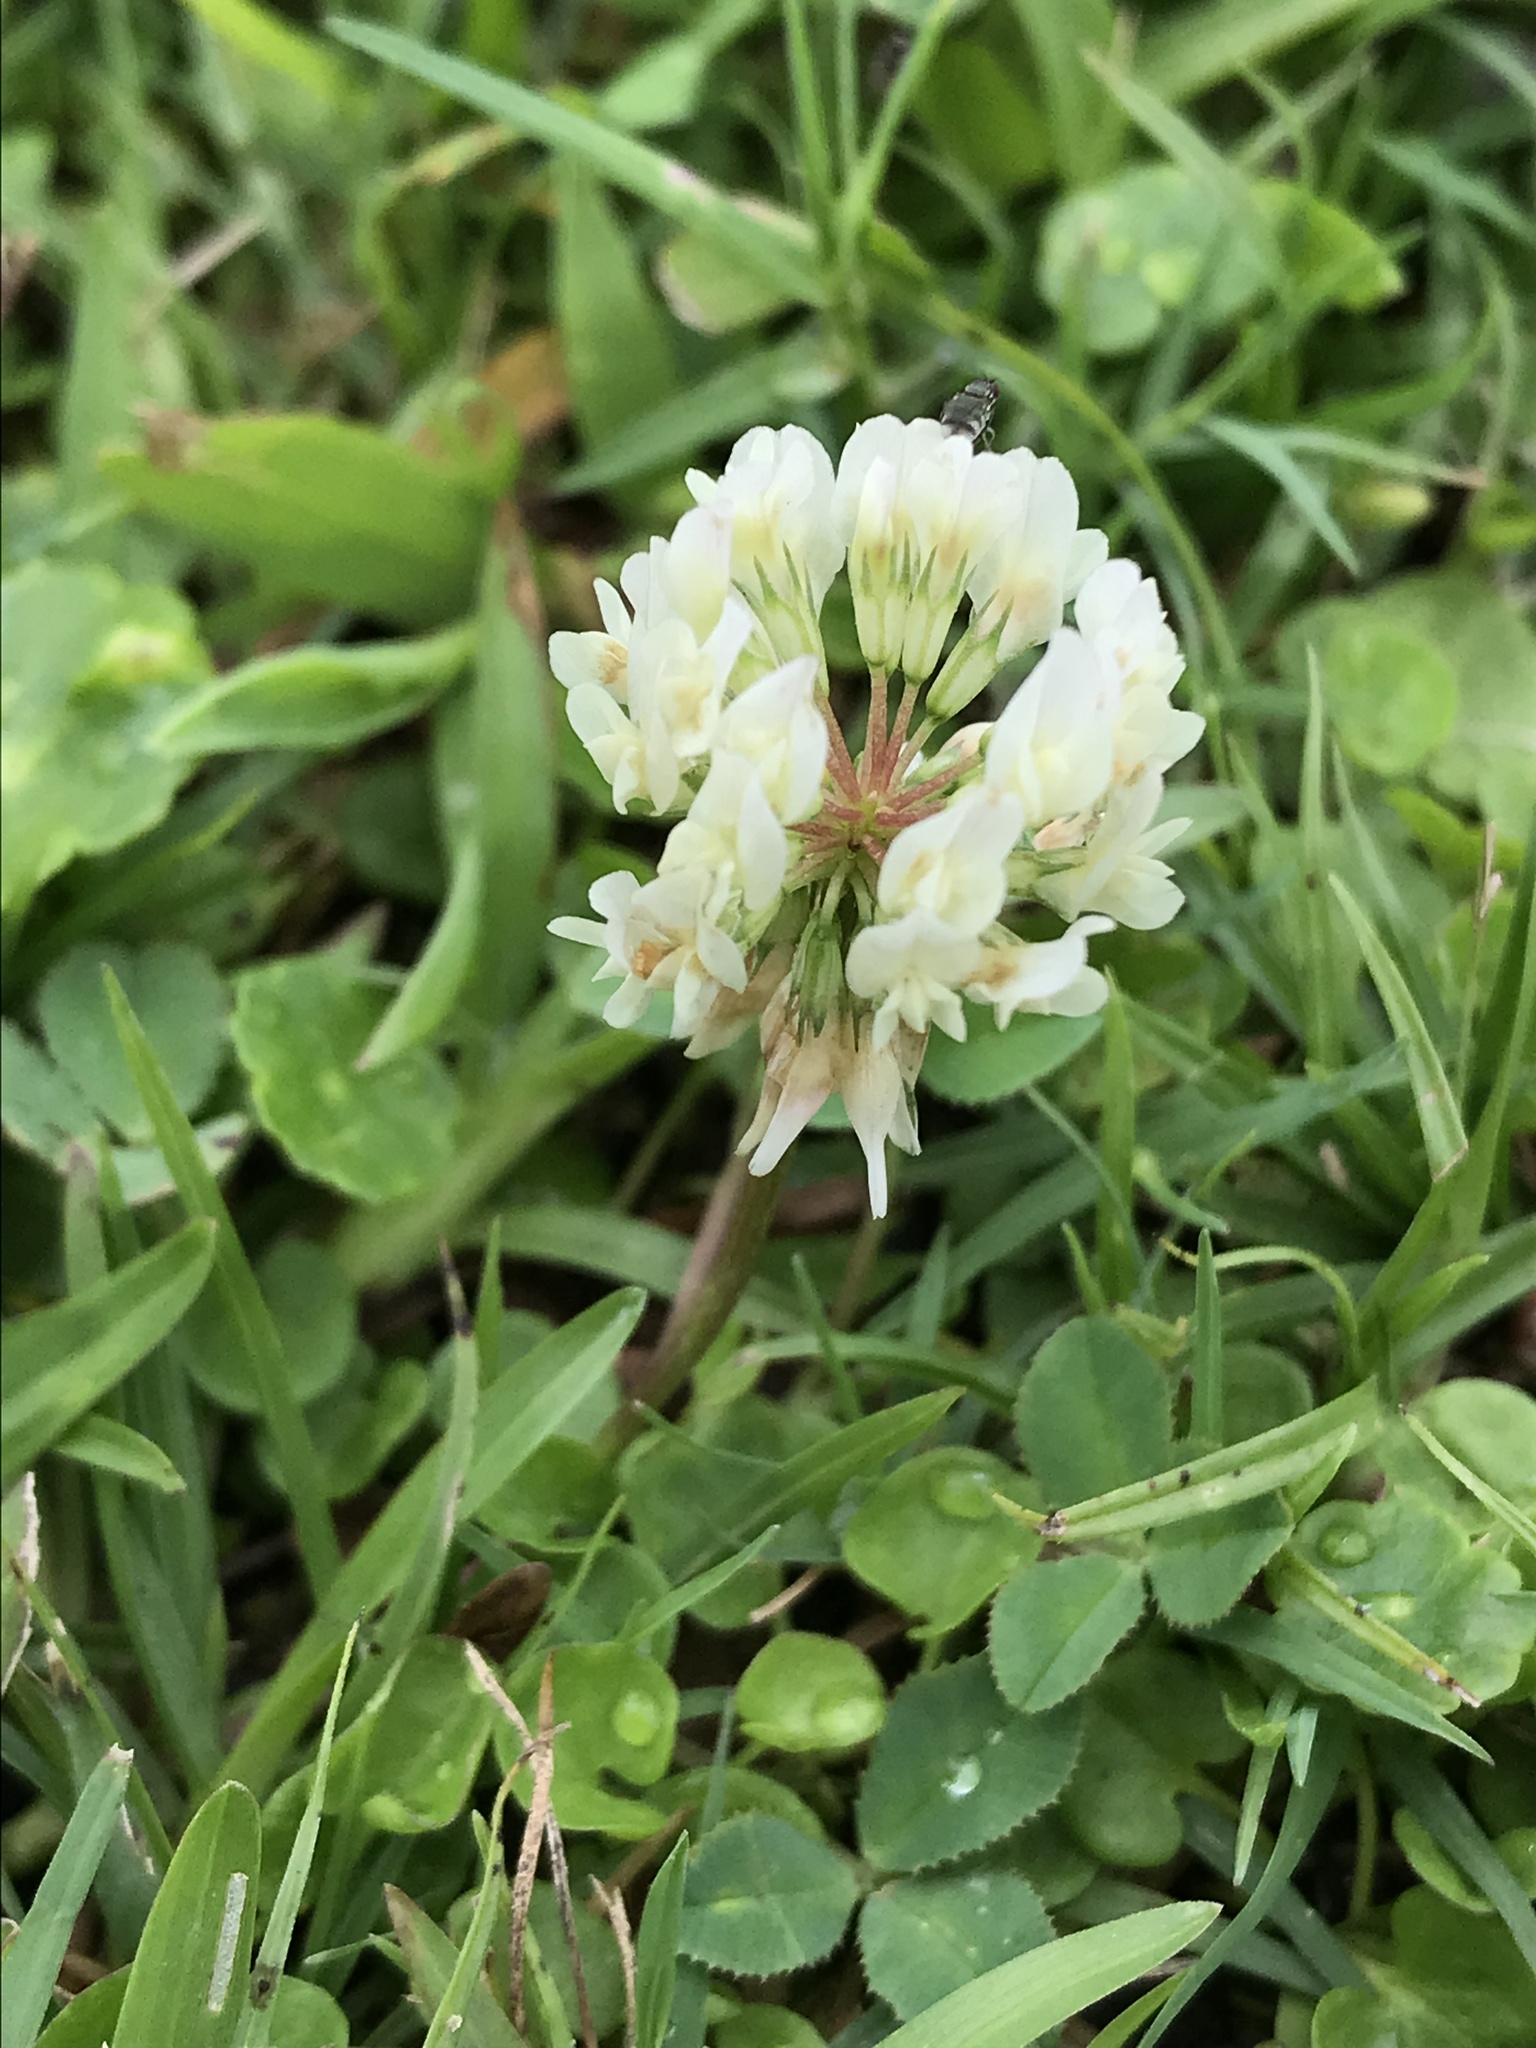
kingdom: Plantae
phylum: Tracheophyta
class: Magnoliopsida
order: Fabales
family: Fabaceae
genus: Trifolium
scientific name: Trifolium repens
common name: White clover
